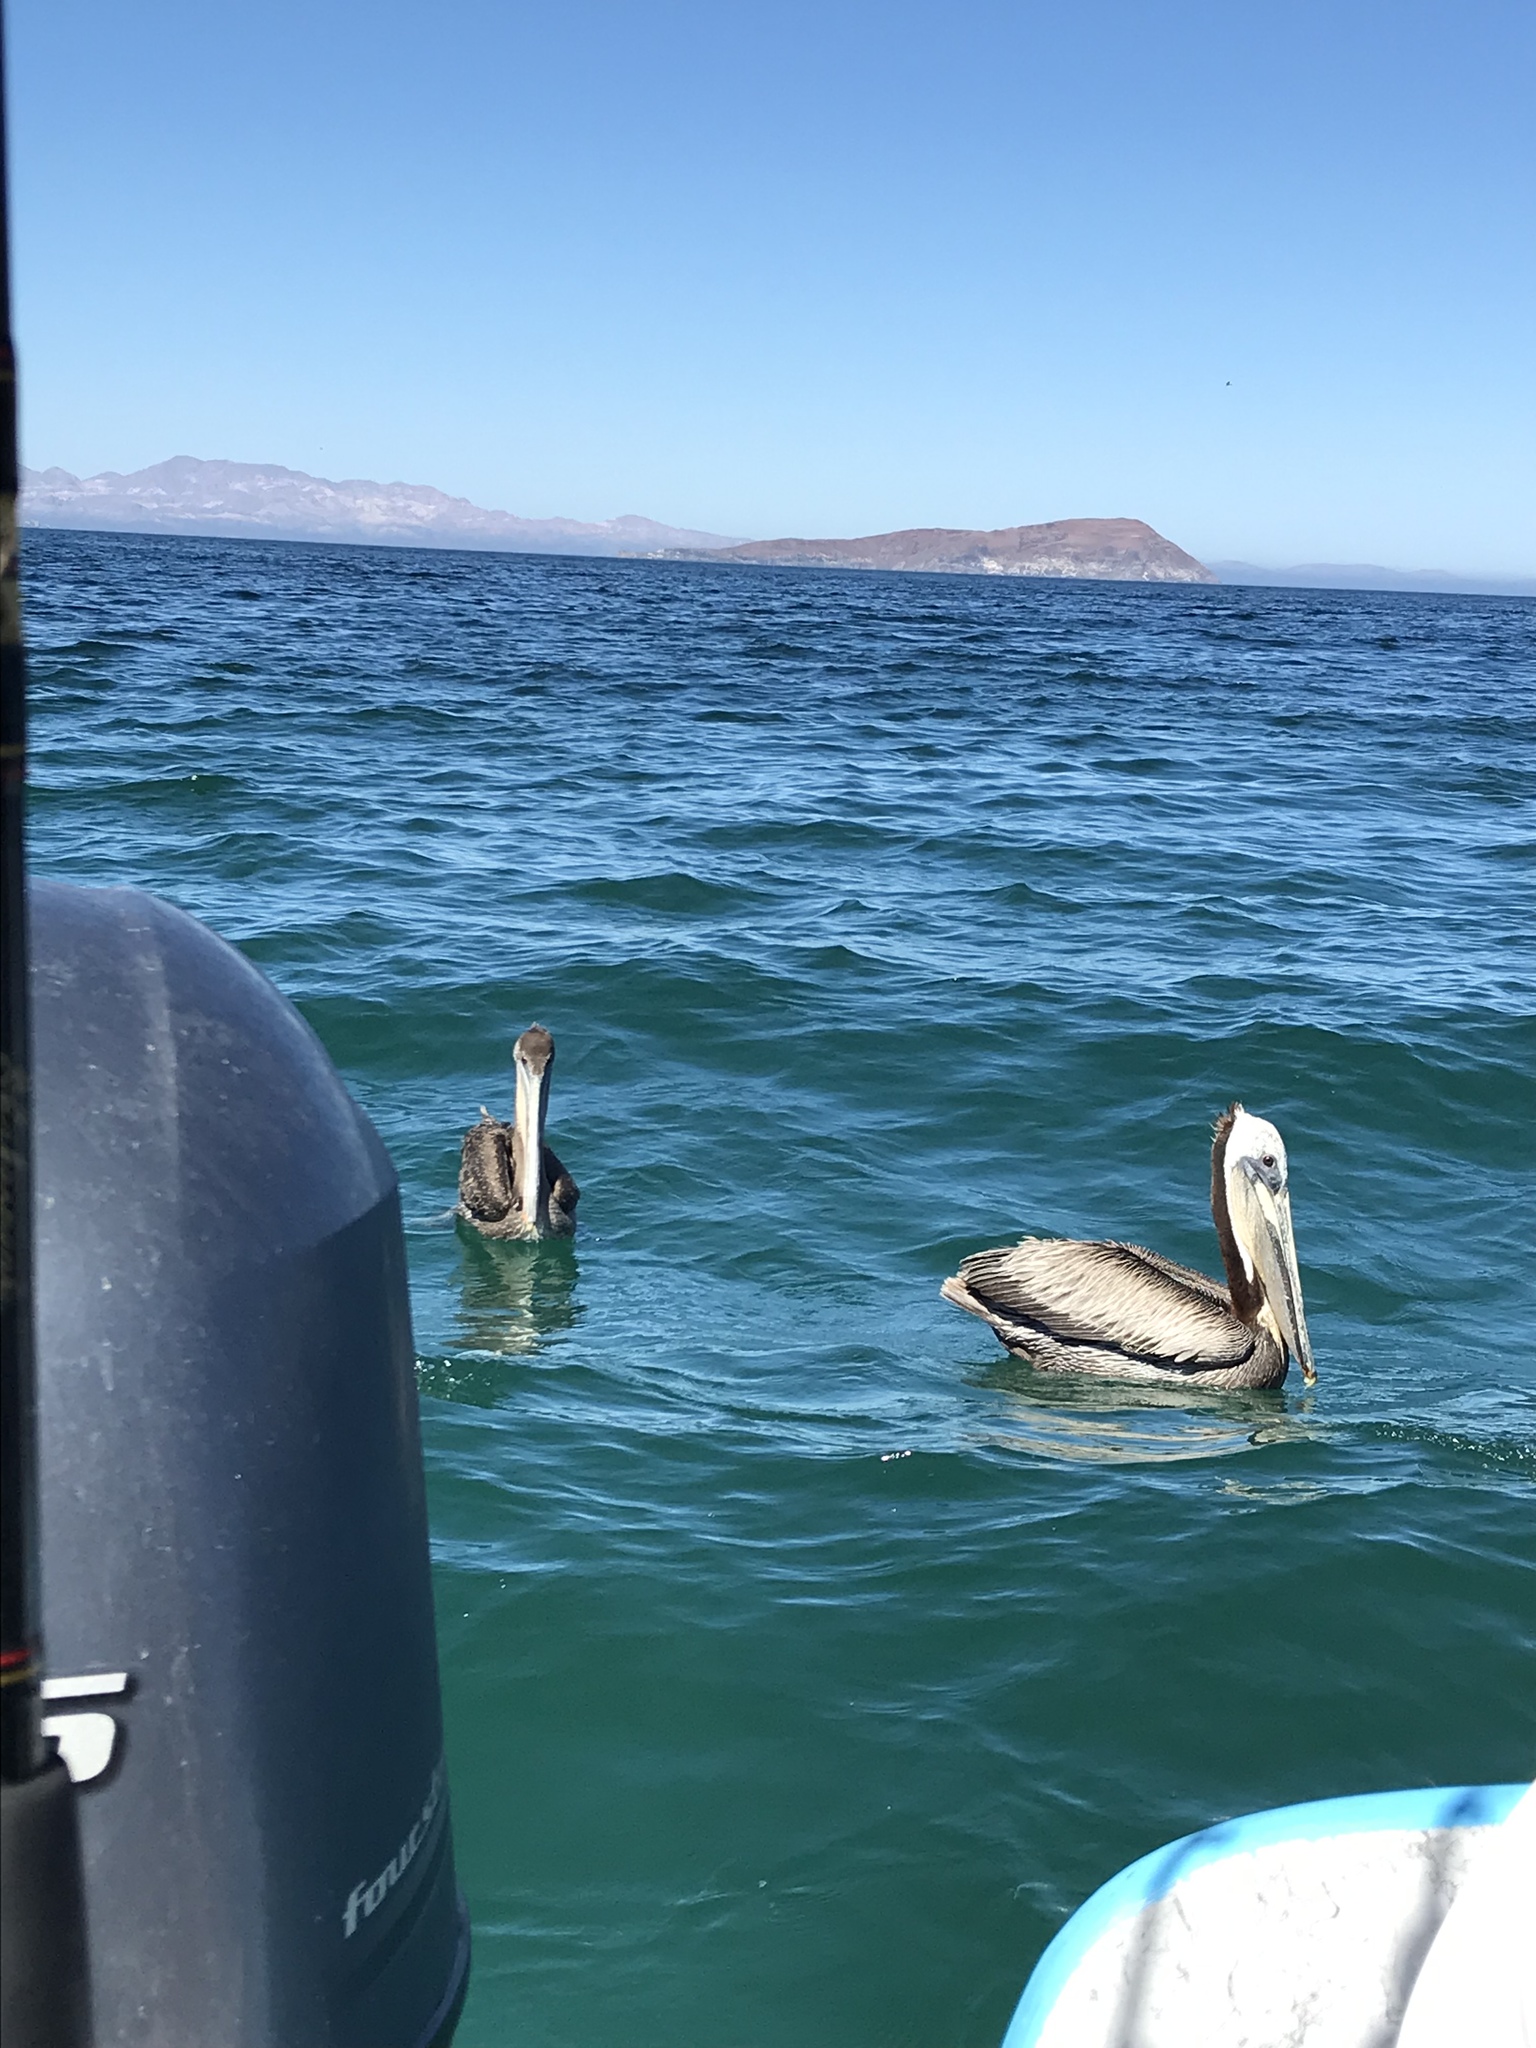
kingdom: Animalia
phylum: Chordata
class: Aves
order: Pelecaniformes
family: Pelecanidae
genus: Pelecanus
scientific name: Pelecanus occidentalis
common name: Brown pelican
